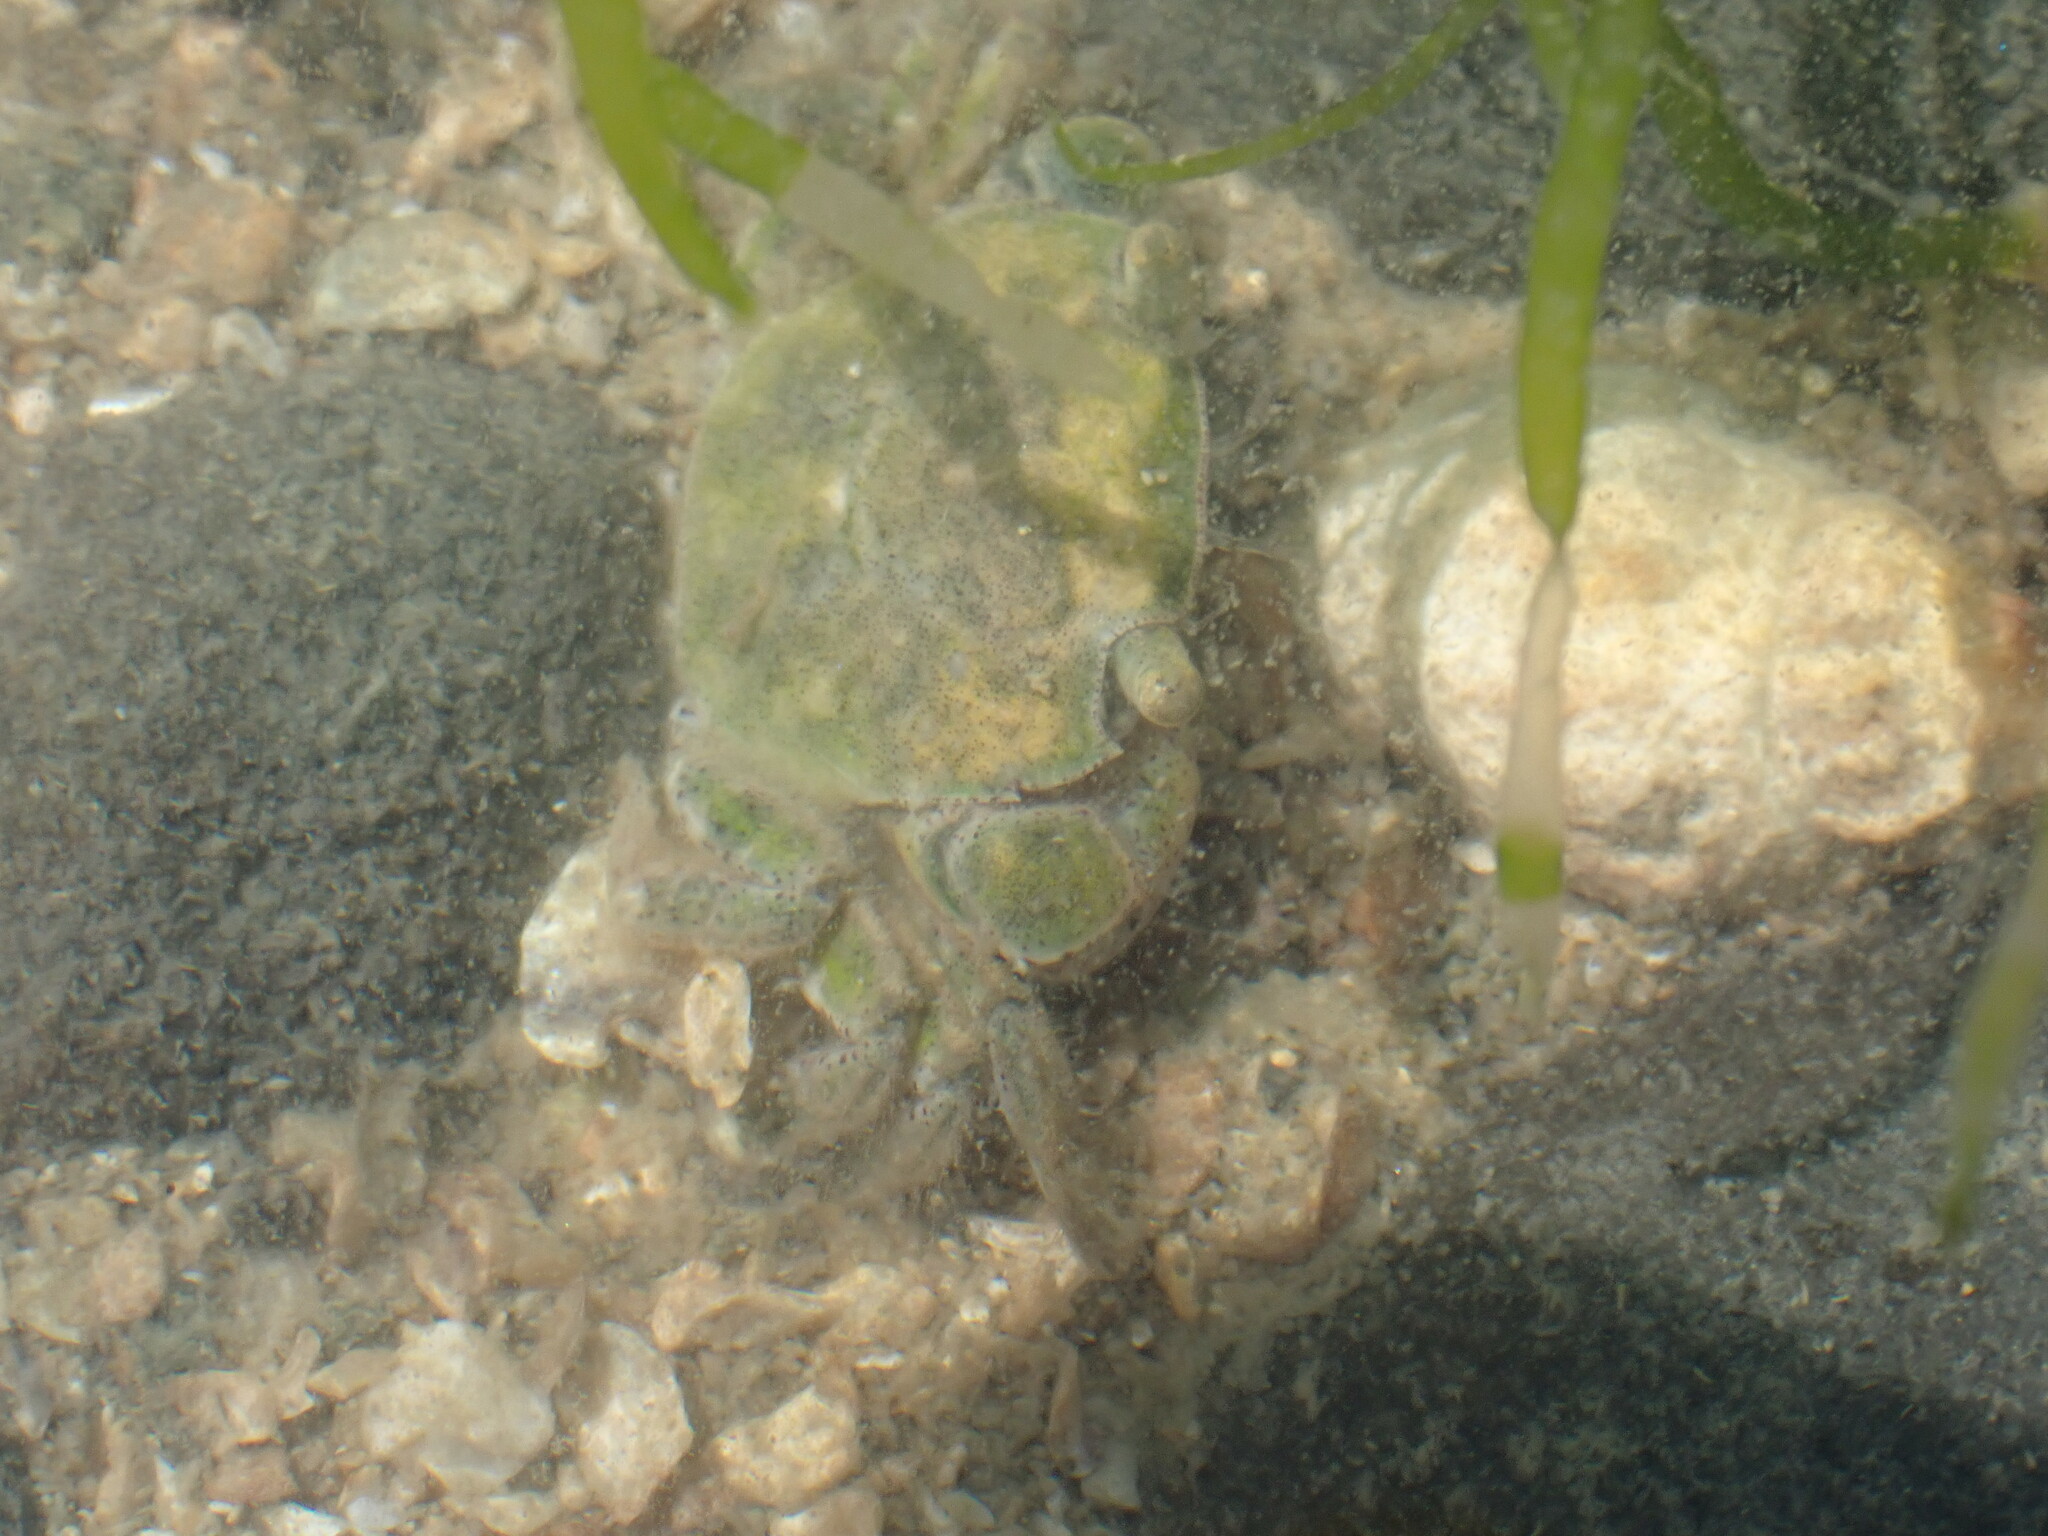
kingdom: Animalia
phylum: Arthropoda
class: Malacostraca
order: Decapoda
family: Varunidae
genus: Hemigrapsus
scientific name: Hemigrapsus crenulatus
